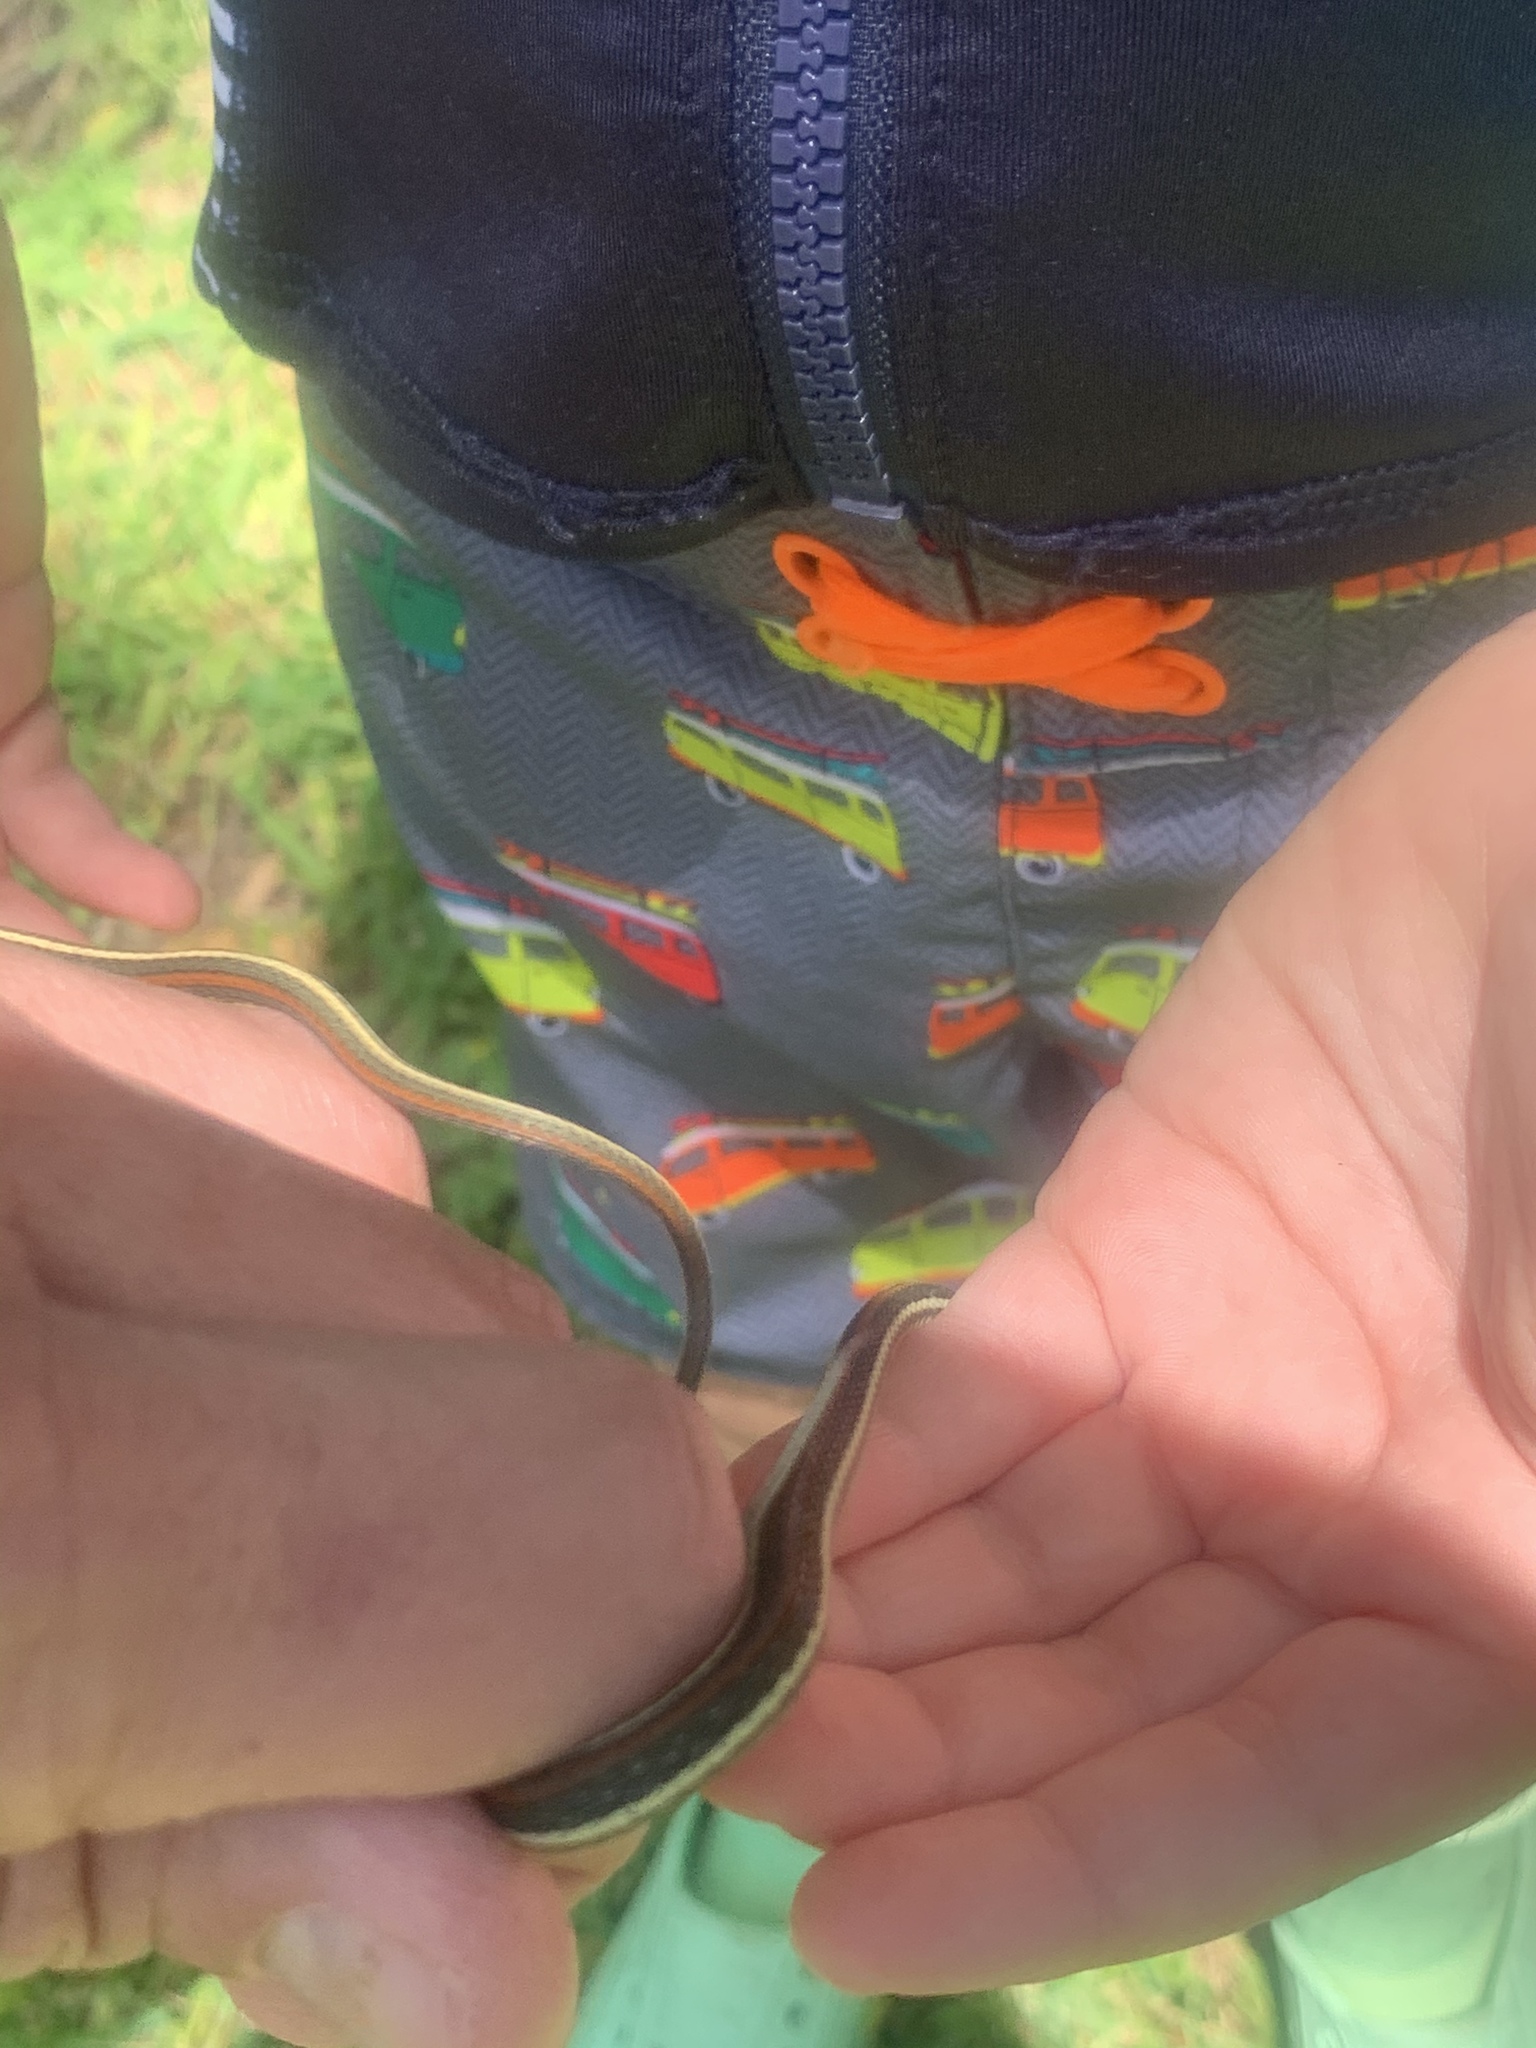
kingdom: Animalia
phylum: Chordata
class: Squamata
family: Colubridae
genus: Thamnophis
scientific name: Thamnophis proximus
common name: Western ribbon snake
